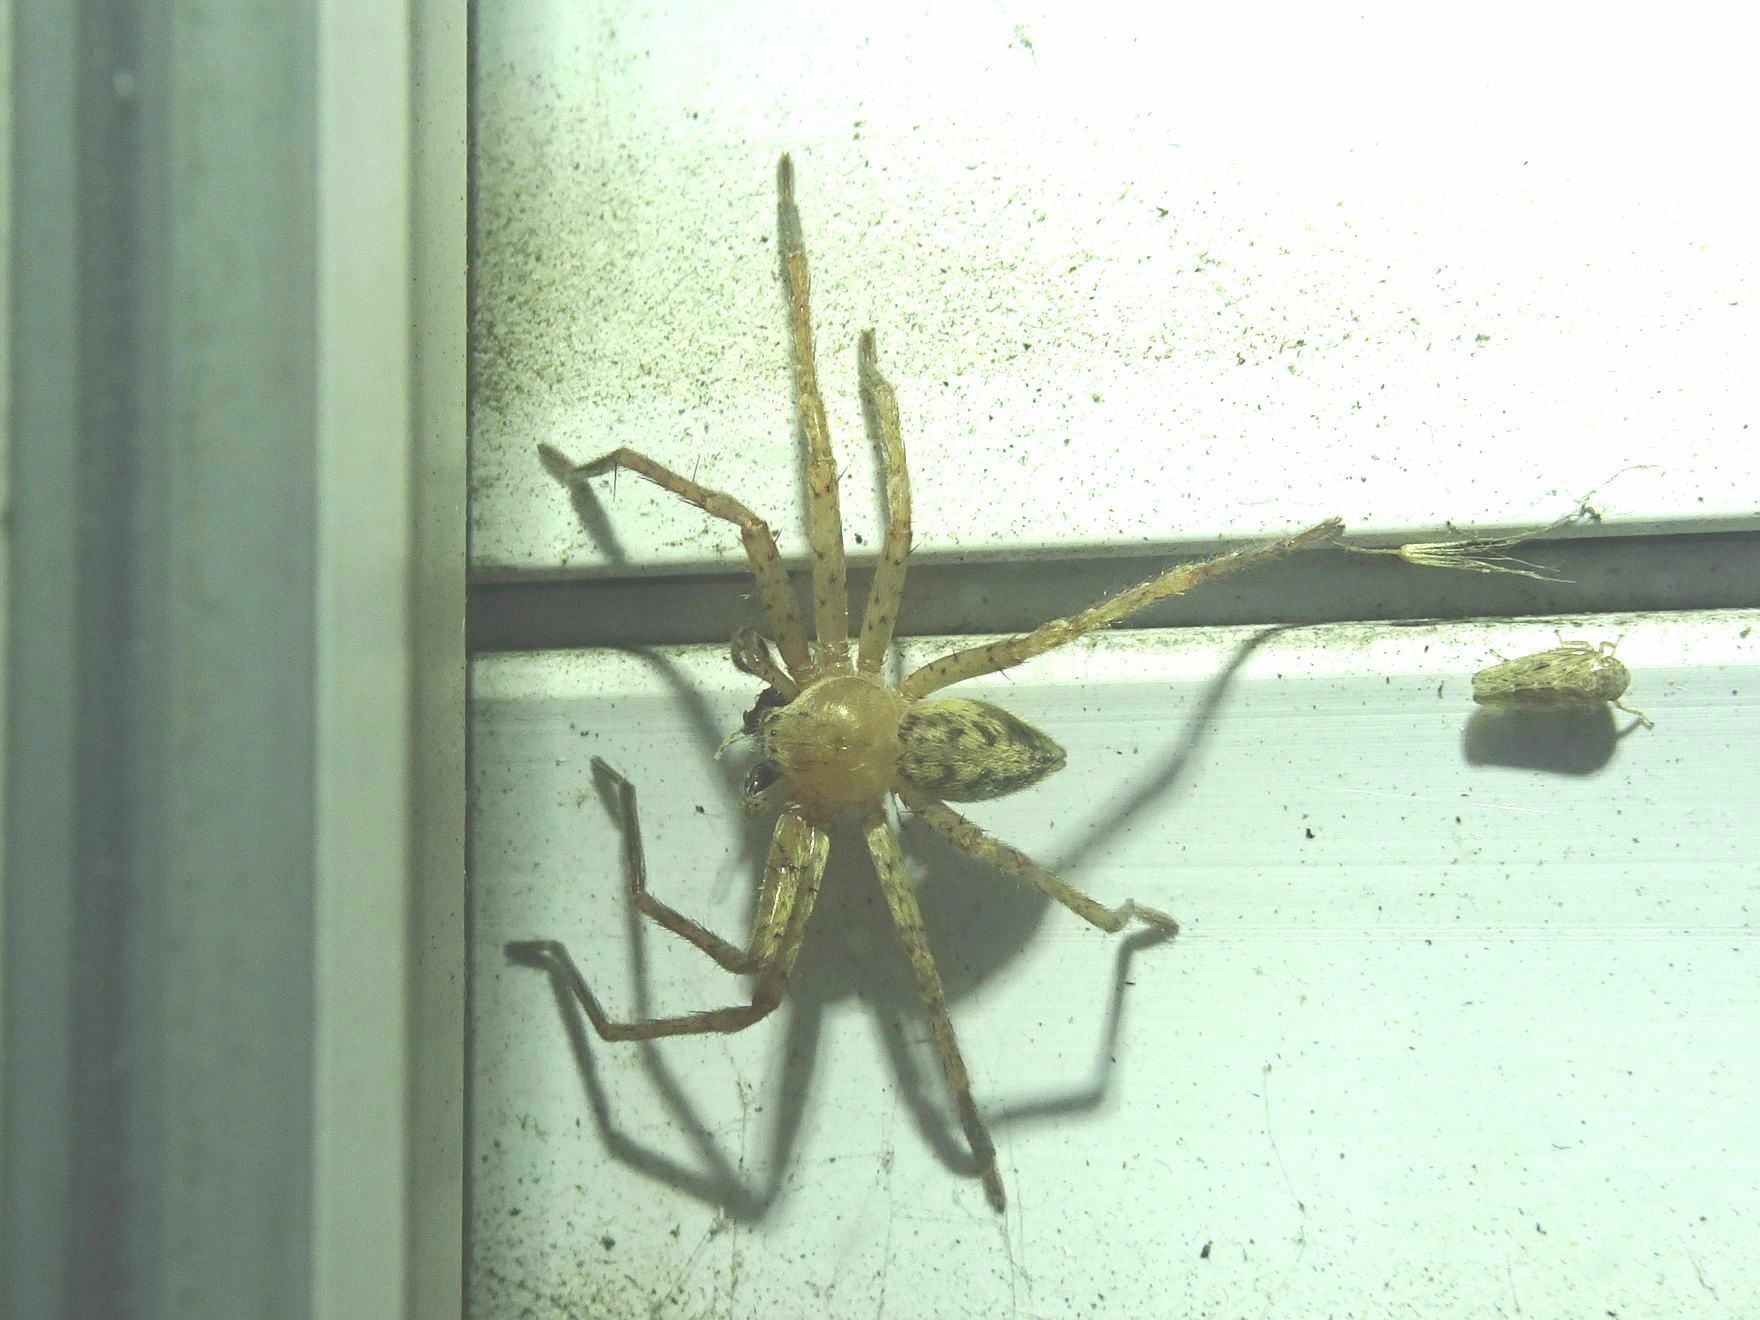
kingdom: Animalia
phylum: Arthropoda
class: Arachnida
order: Araneae
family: Sparassidae
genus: Olios
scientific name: Olios argelasius
